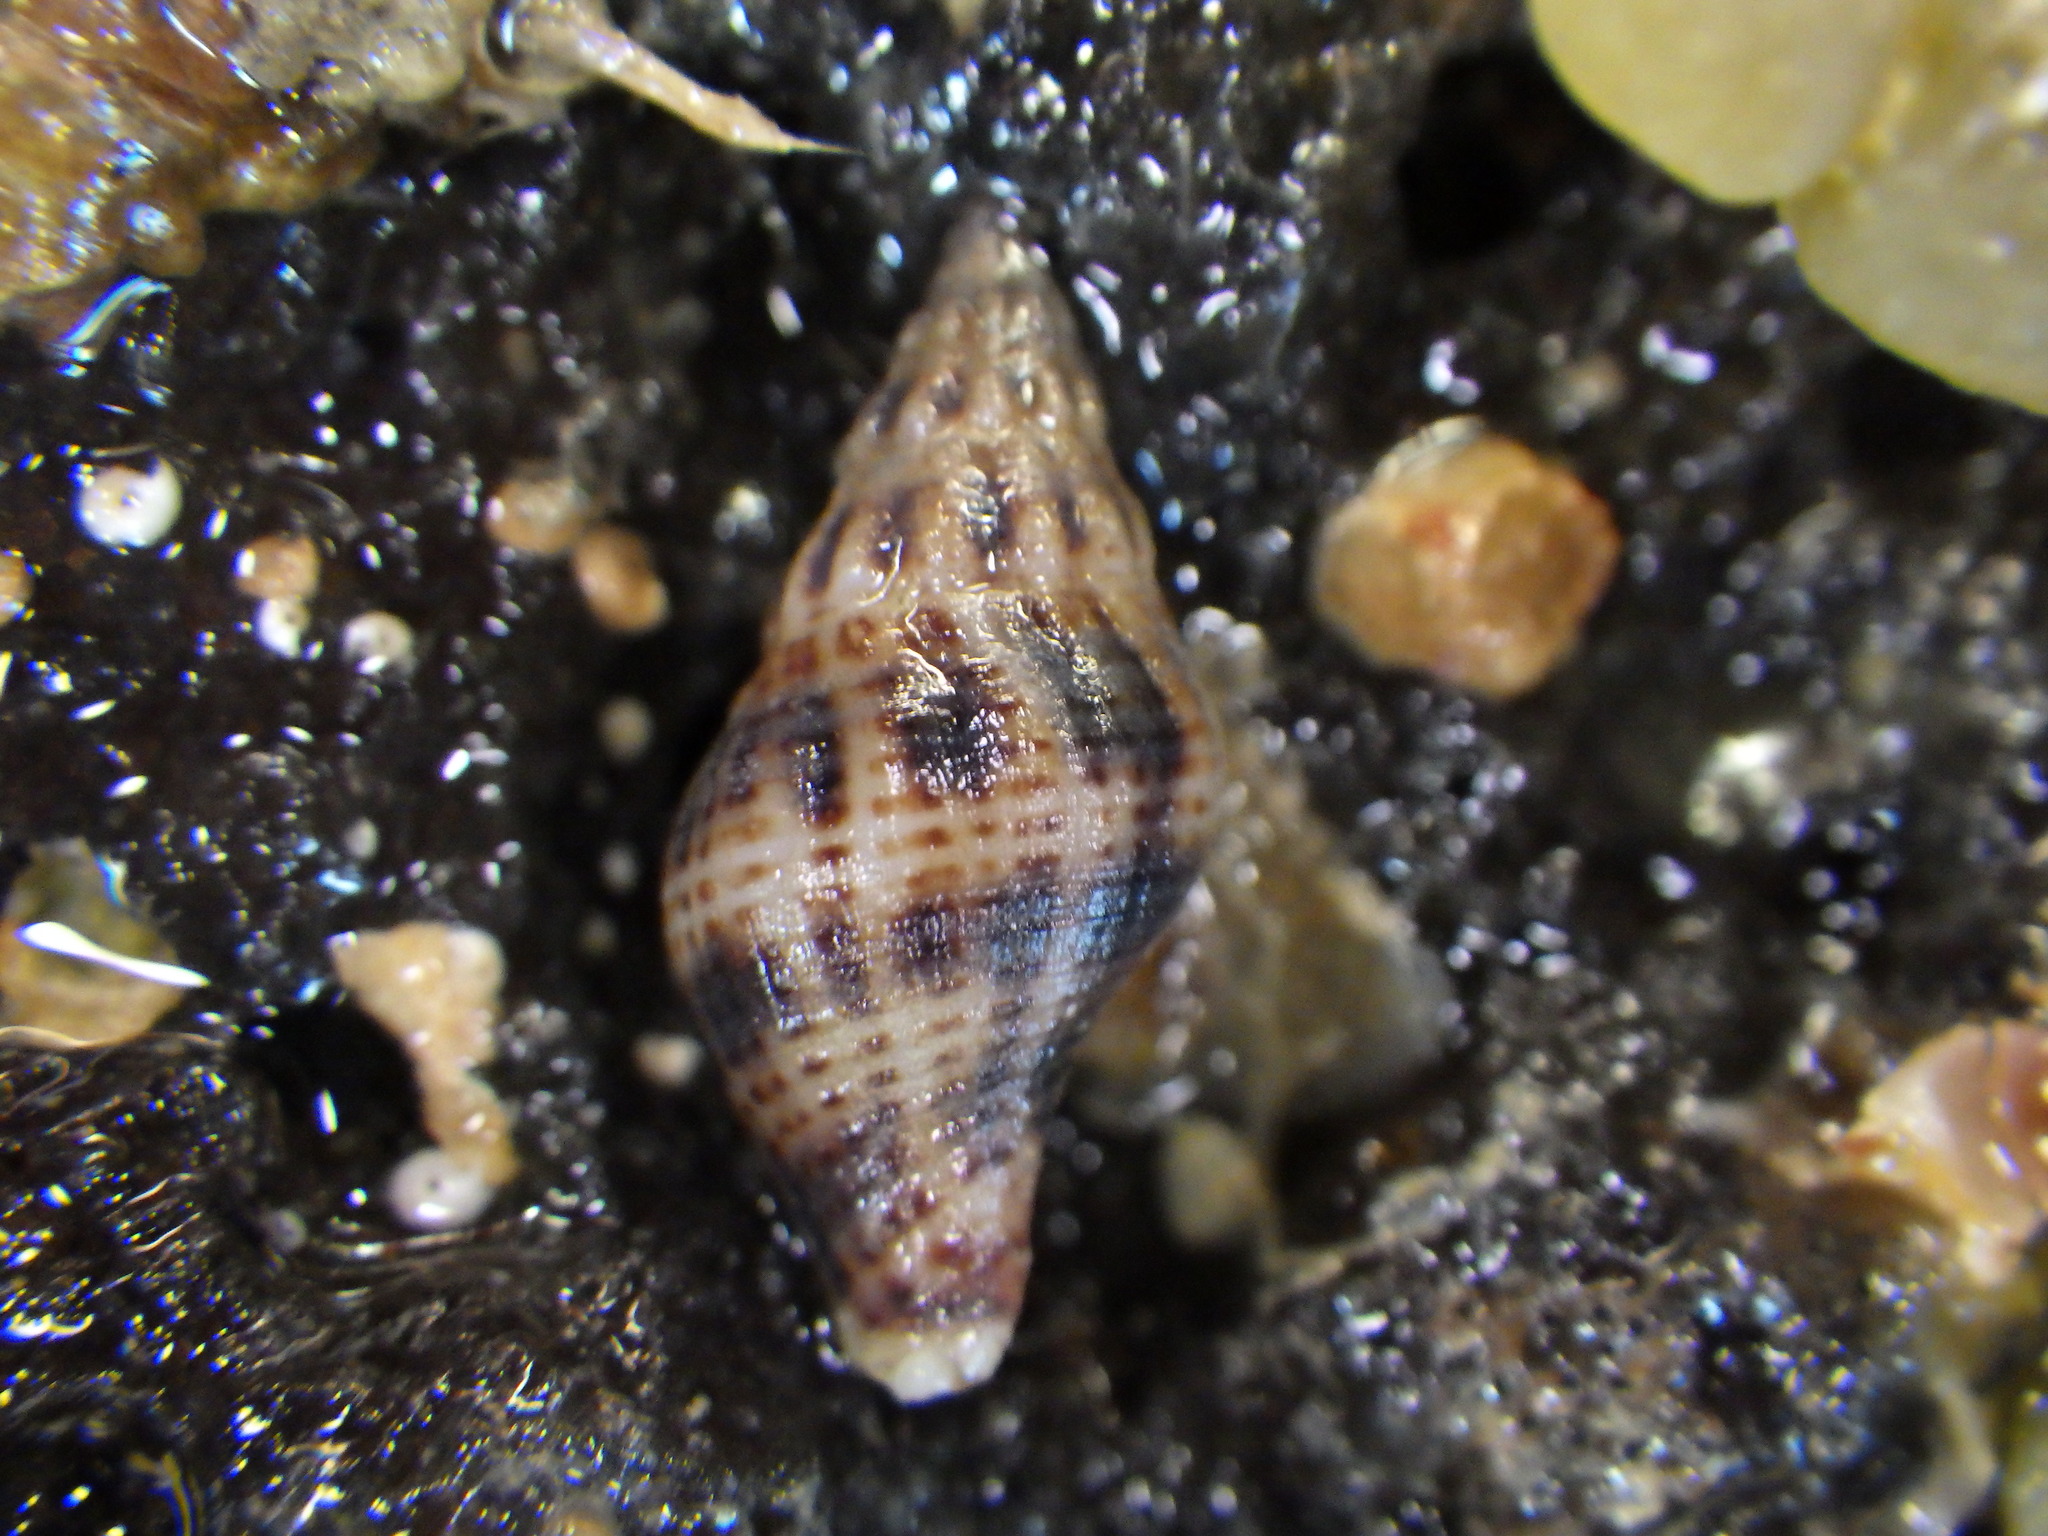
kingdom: Animalia
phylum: Mollusca
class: Gastropoda
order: Neogastropoda
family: Tudiclidae
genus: Buccinulum
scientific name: Buccinulum vittatum
